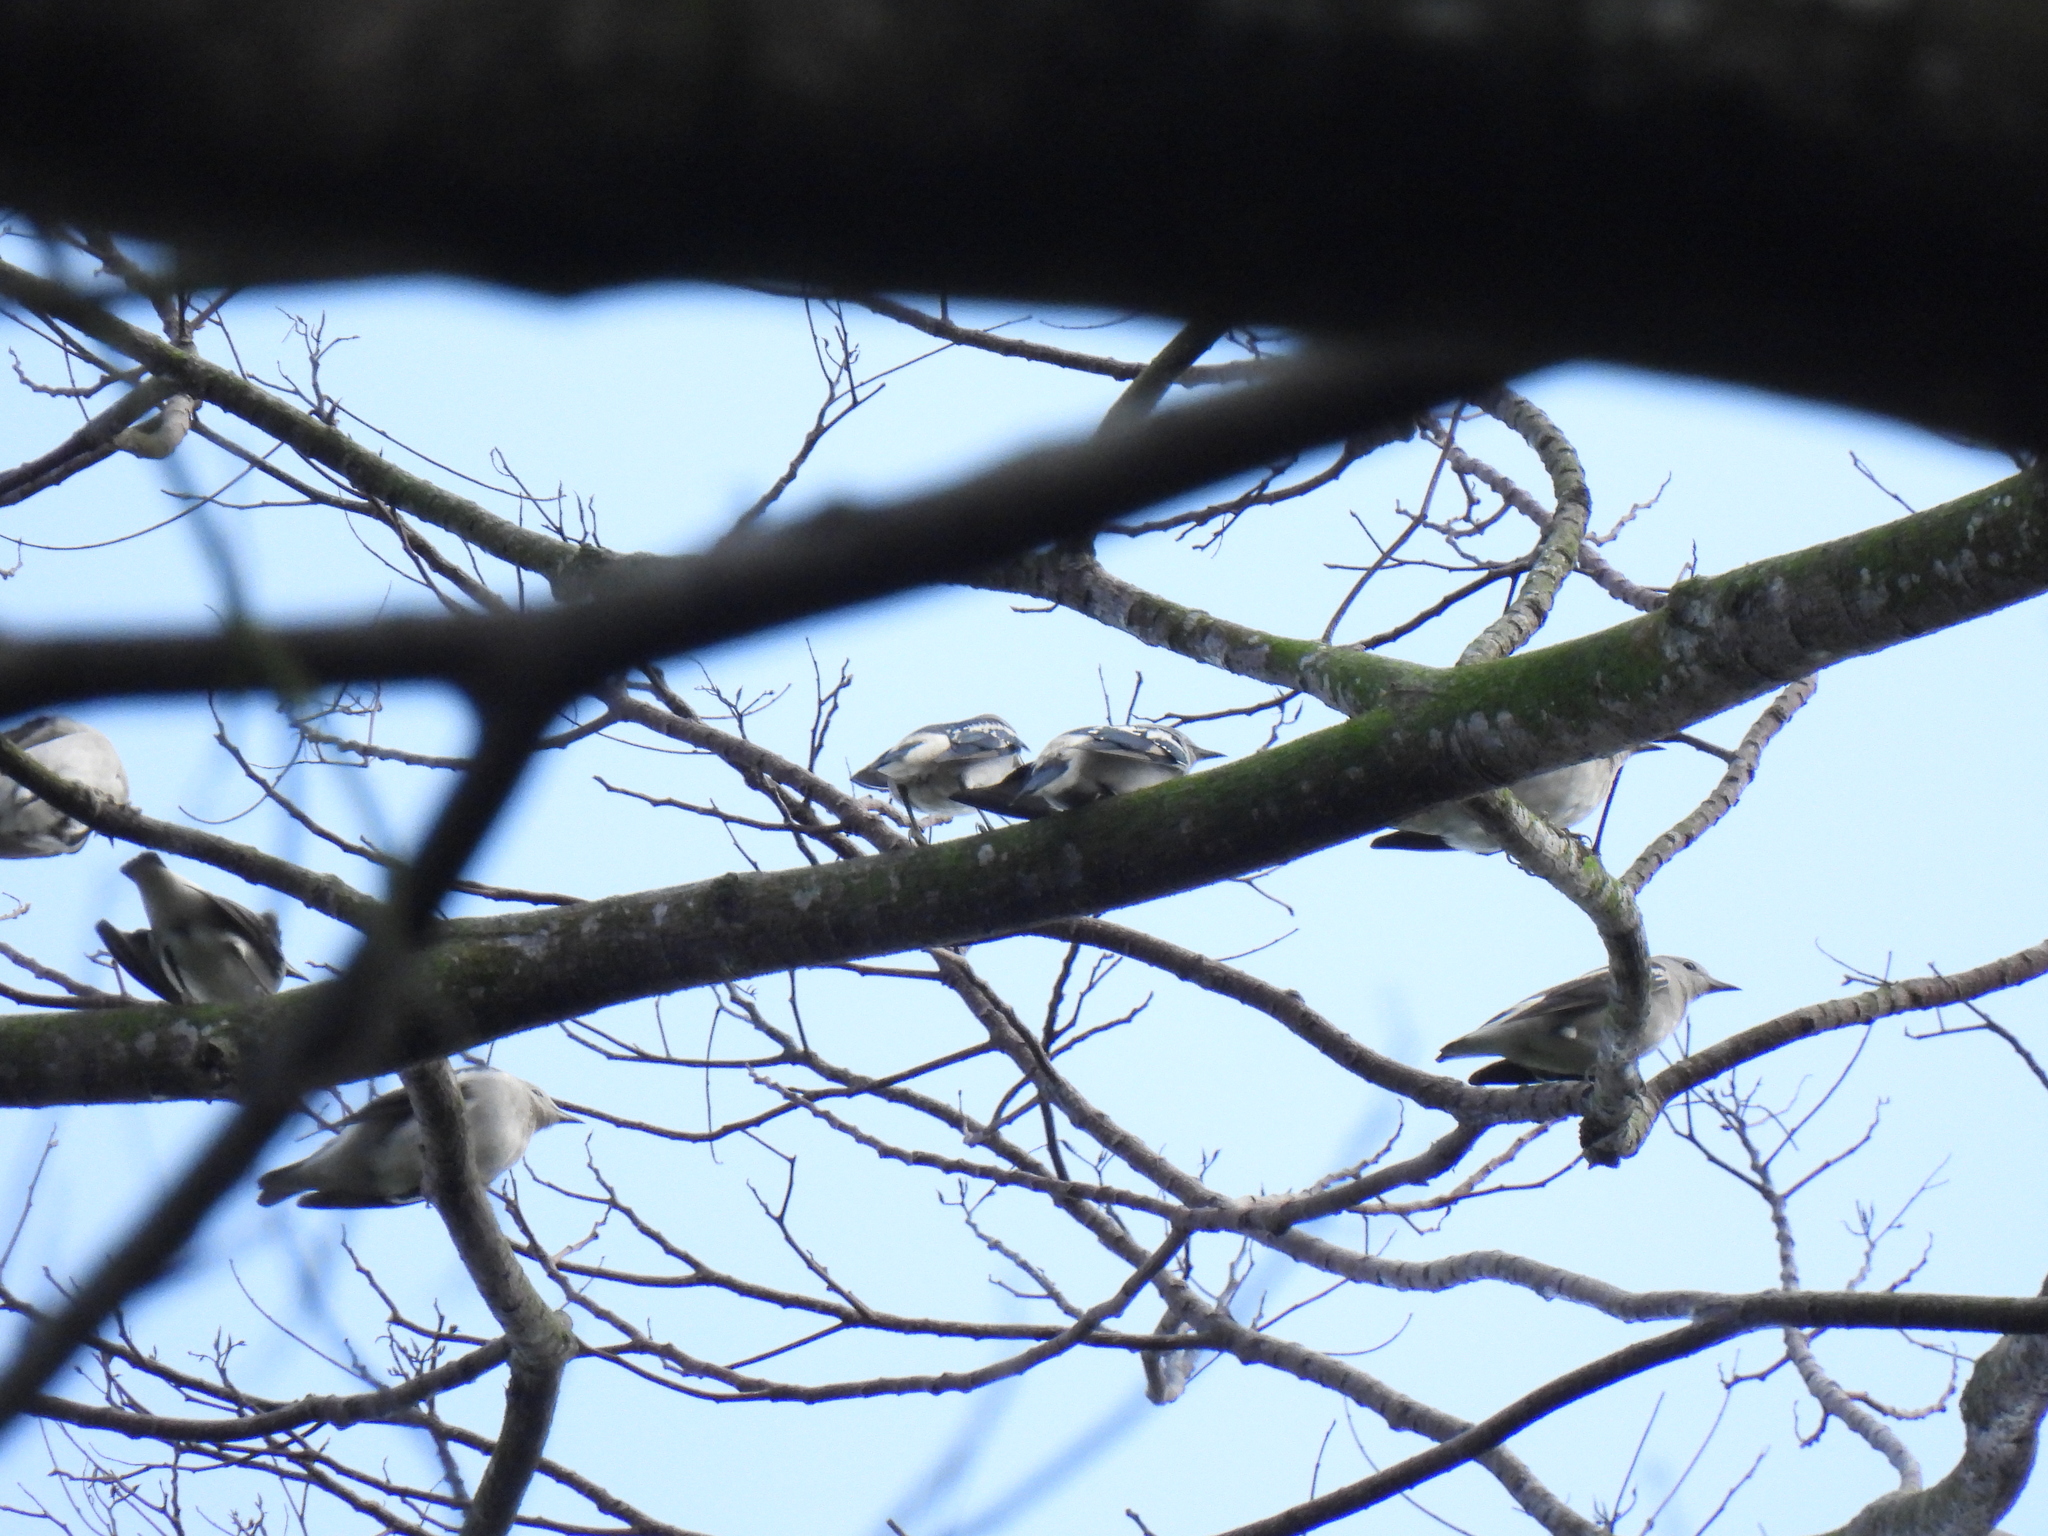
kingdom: Animalia
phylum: Chordata
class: Aves
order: Passeriformes
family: Sturnidae
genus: Agropsar
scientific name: Agropsar sturninus
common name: Daurian starling
